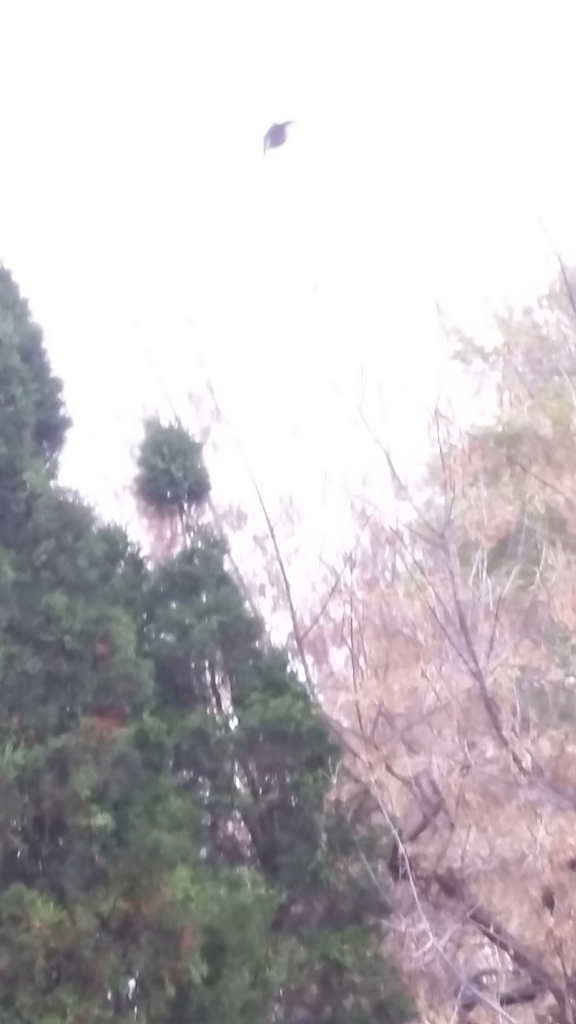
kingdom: Animalia
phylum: Chordata
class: Aves
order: Passeriformes
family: Paridae
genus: Poecile
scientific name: Poecile atricapillus
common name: Black-capped chickadee
